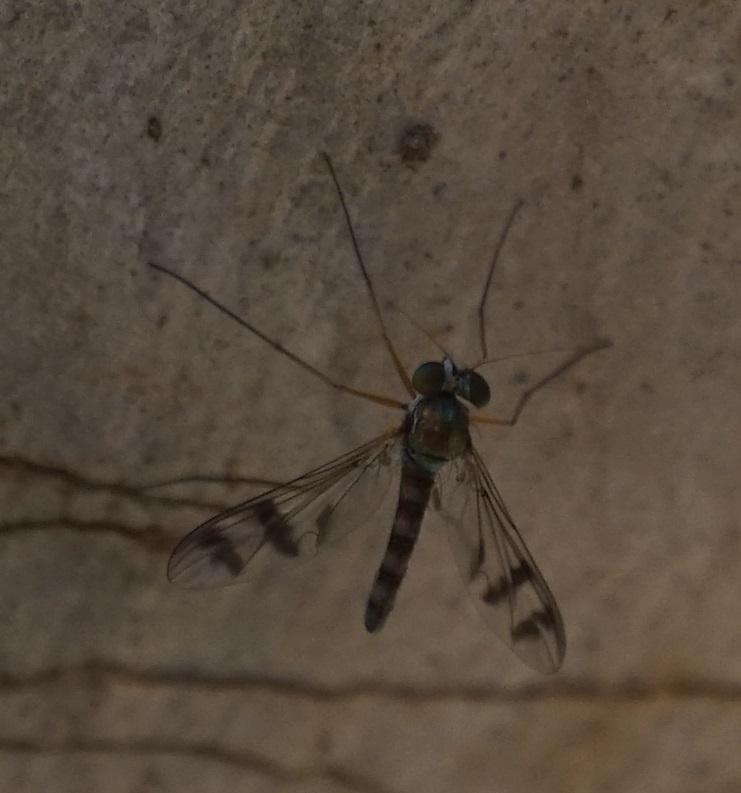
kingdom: Animalia
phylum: Arthropoda
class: Insecta
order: Diptera
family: Dolichopodidae
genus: Heteropsilopus
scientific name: Heteropsilopus squamifer
